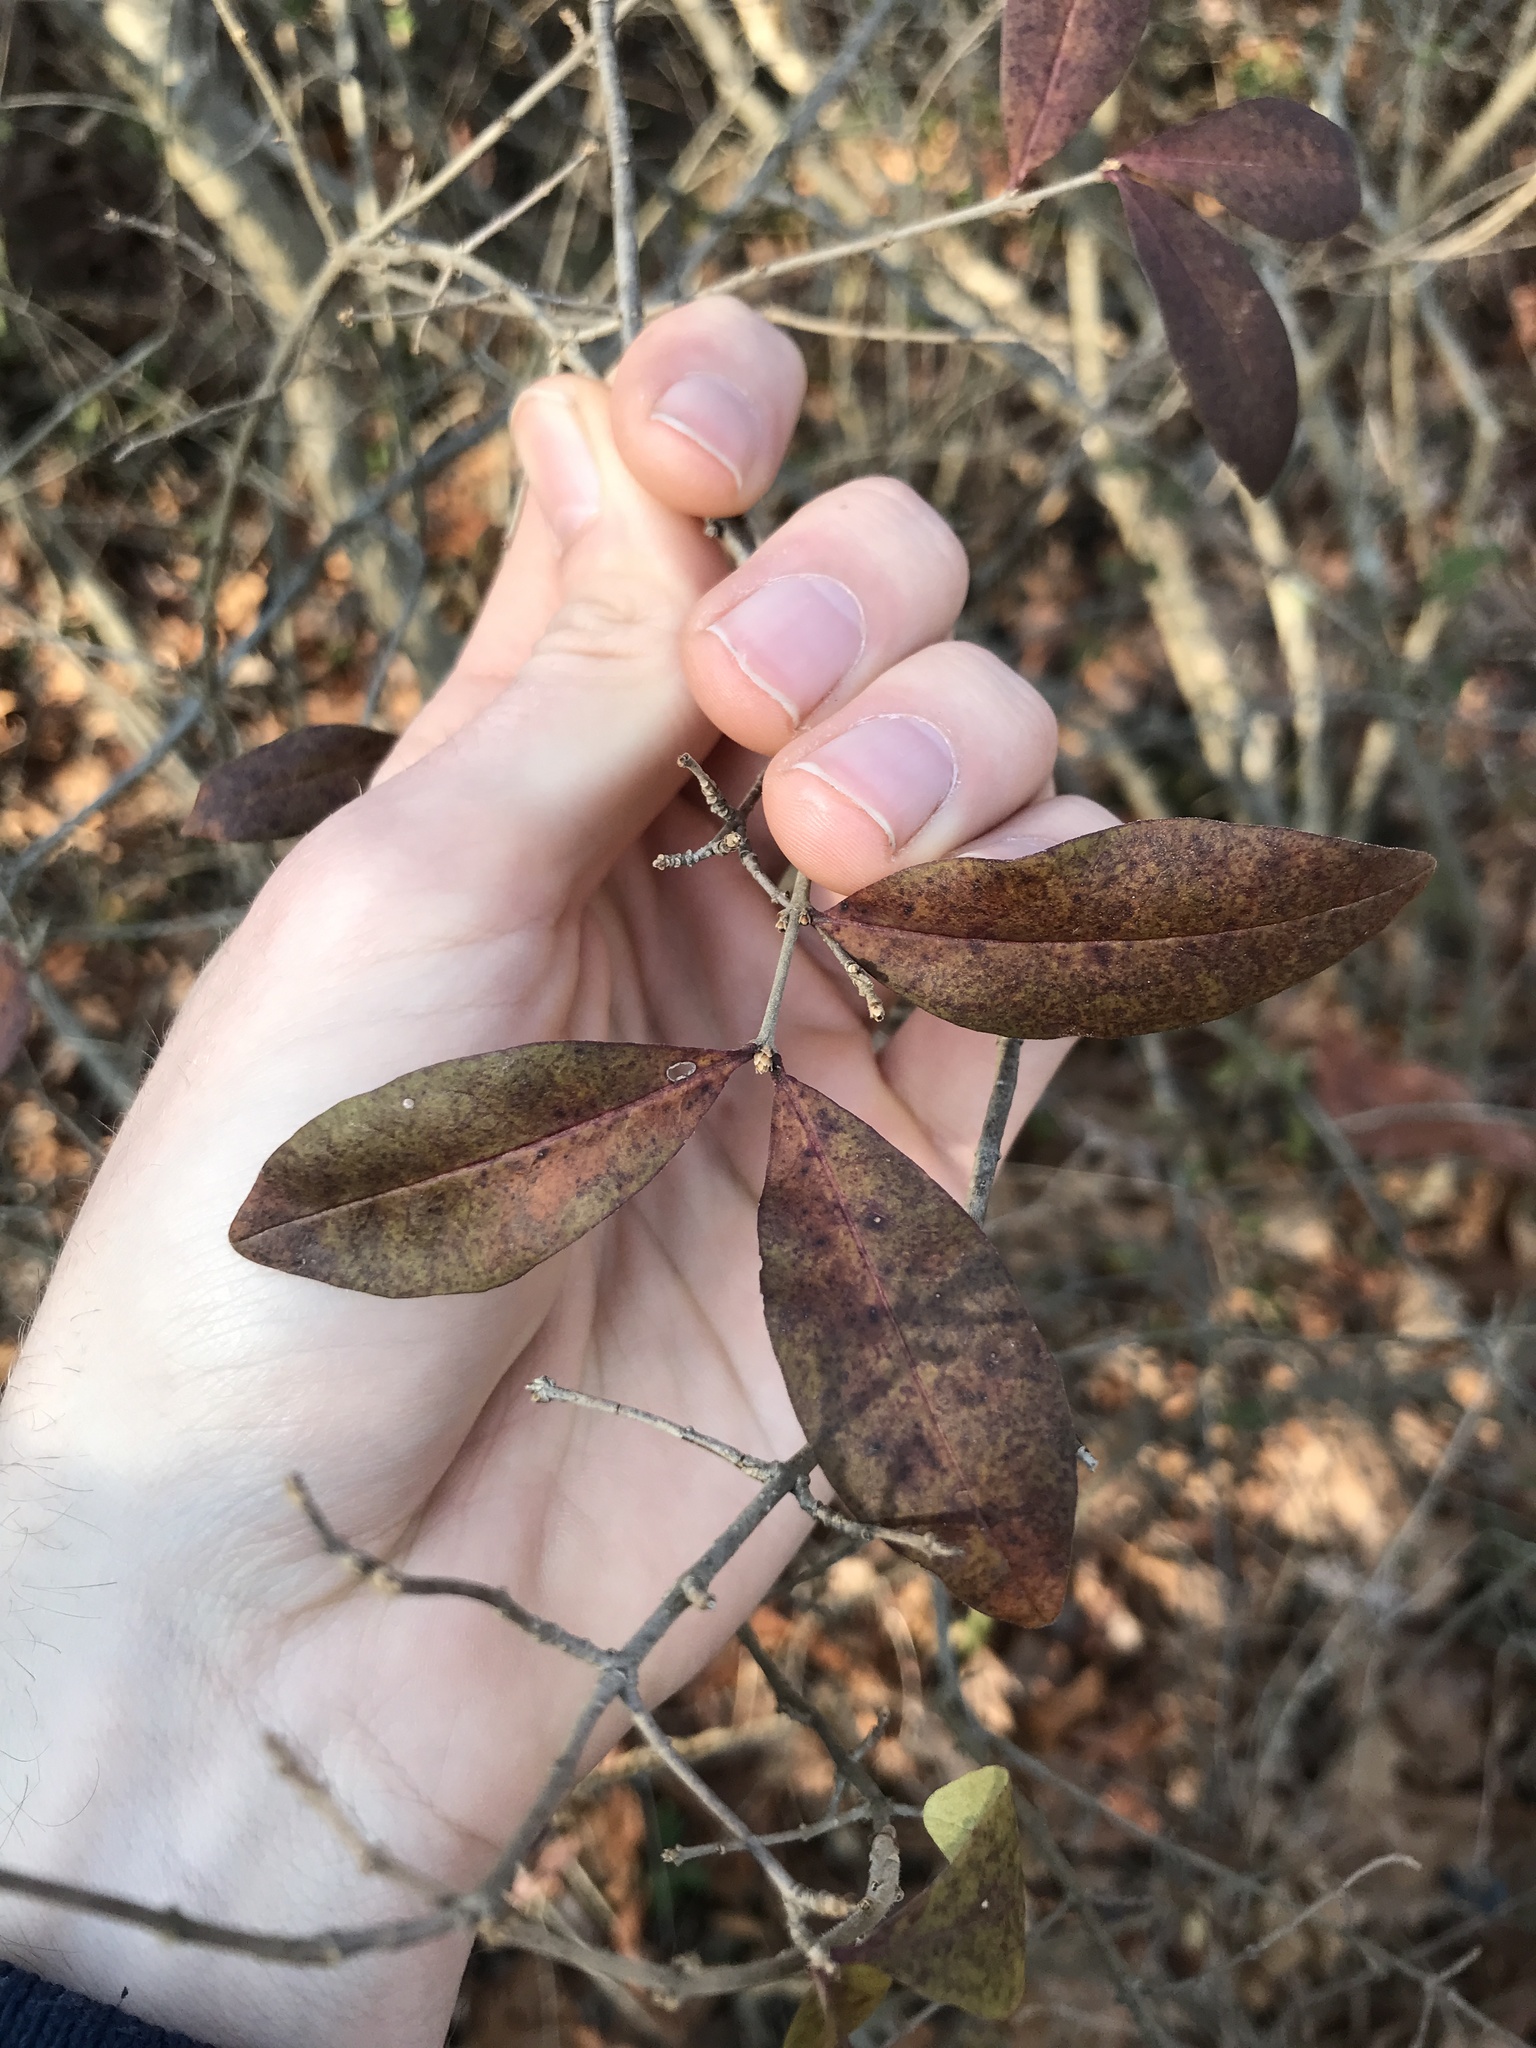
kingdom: Plantae
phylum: Tracheophyta
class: Magnoliopsida
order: Lamiales
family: Oleaceae
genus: Ligustrum
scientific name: Ligustrum obtusifolium
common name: Border privet
